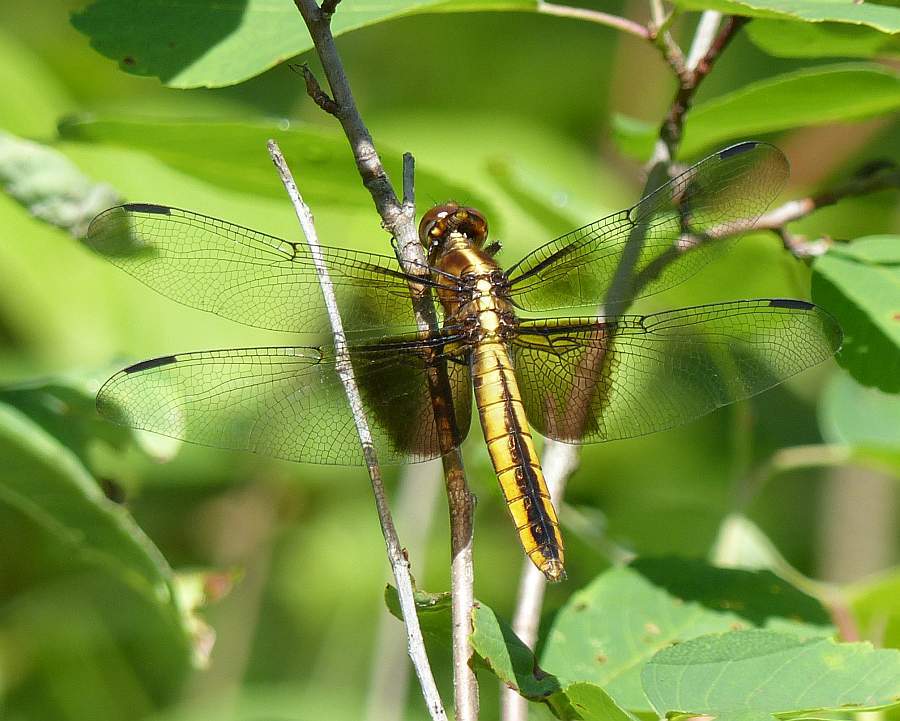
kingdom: Animalia
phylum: Arthropoda
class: Insecta
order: Odonata
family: Libellulidae
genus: Libellula
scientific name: Libellula luctuosa
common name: Widow skimmer
